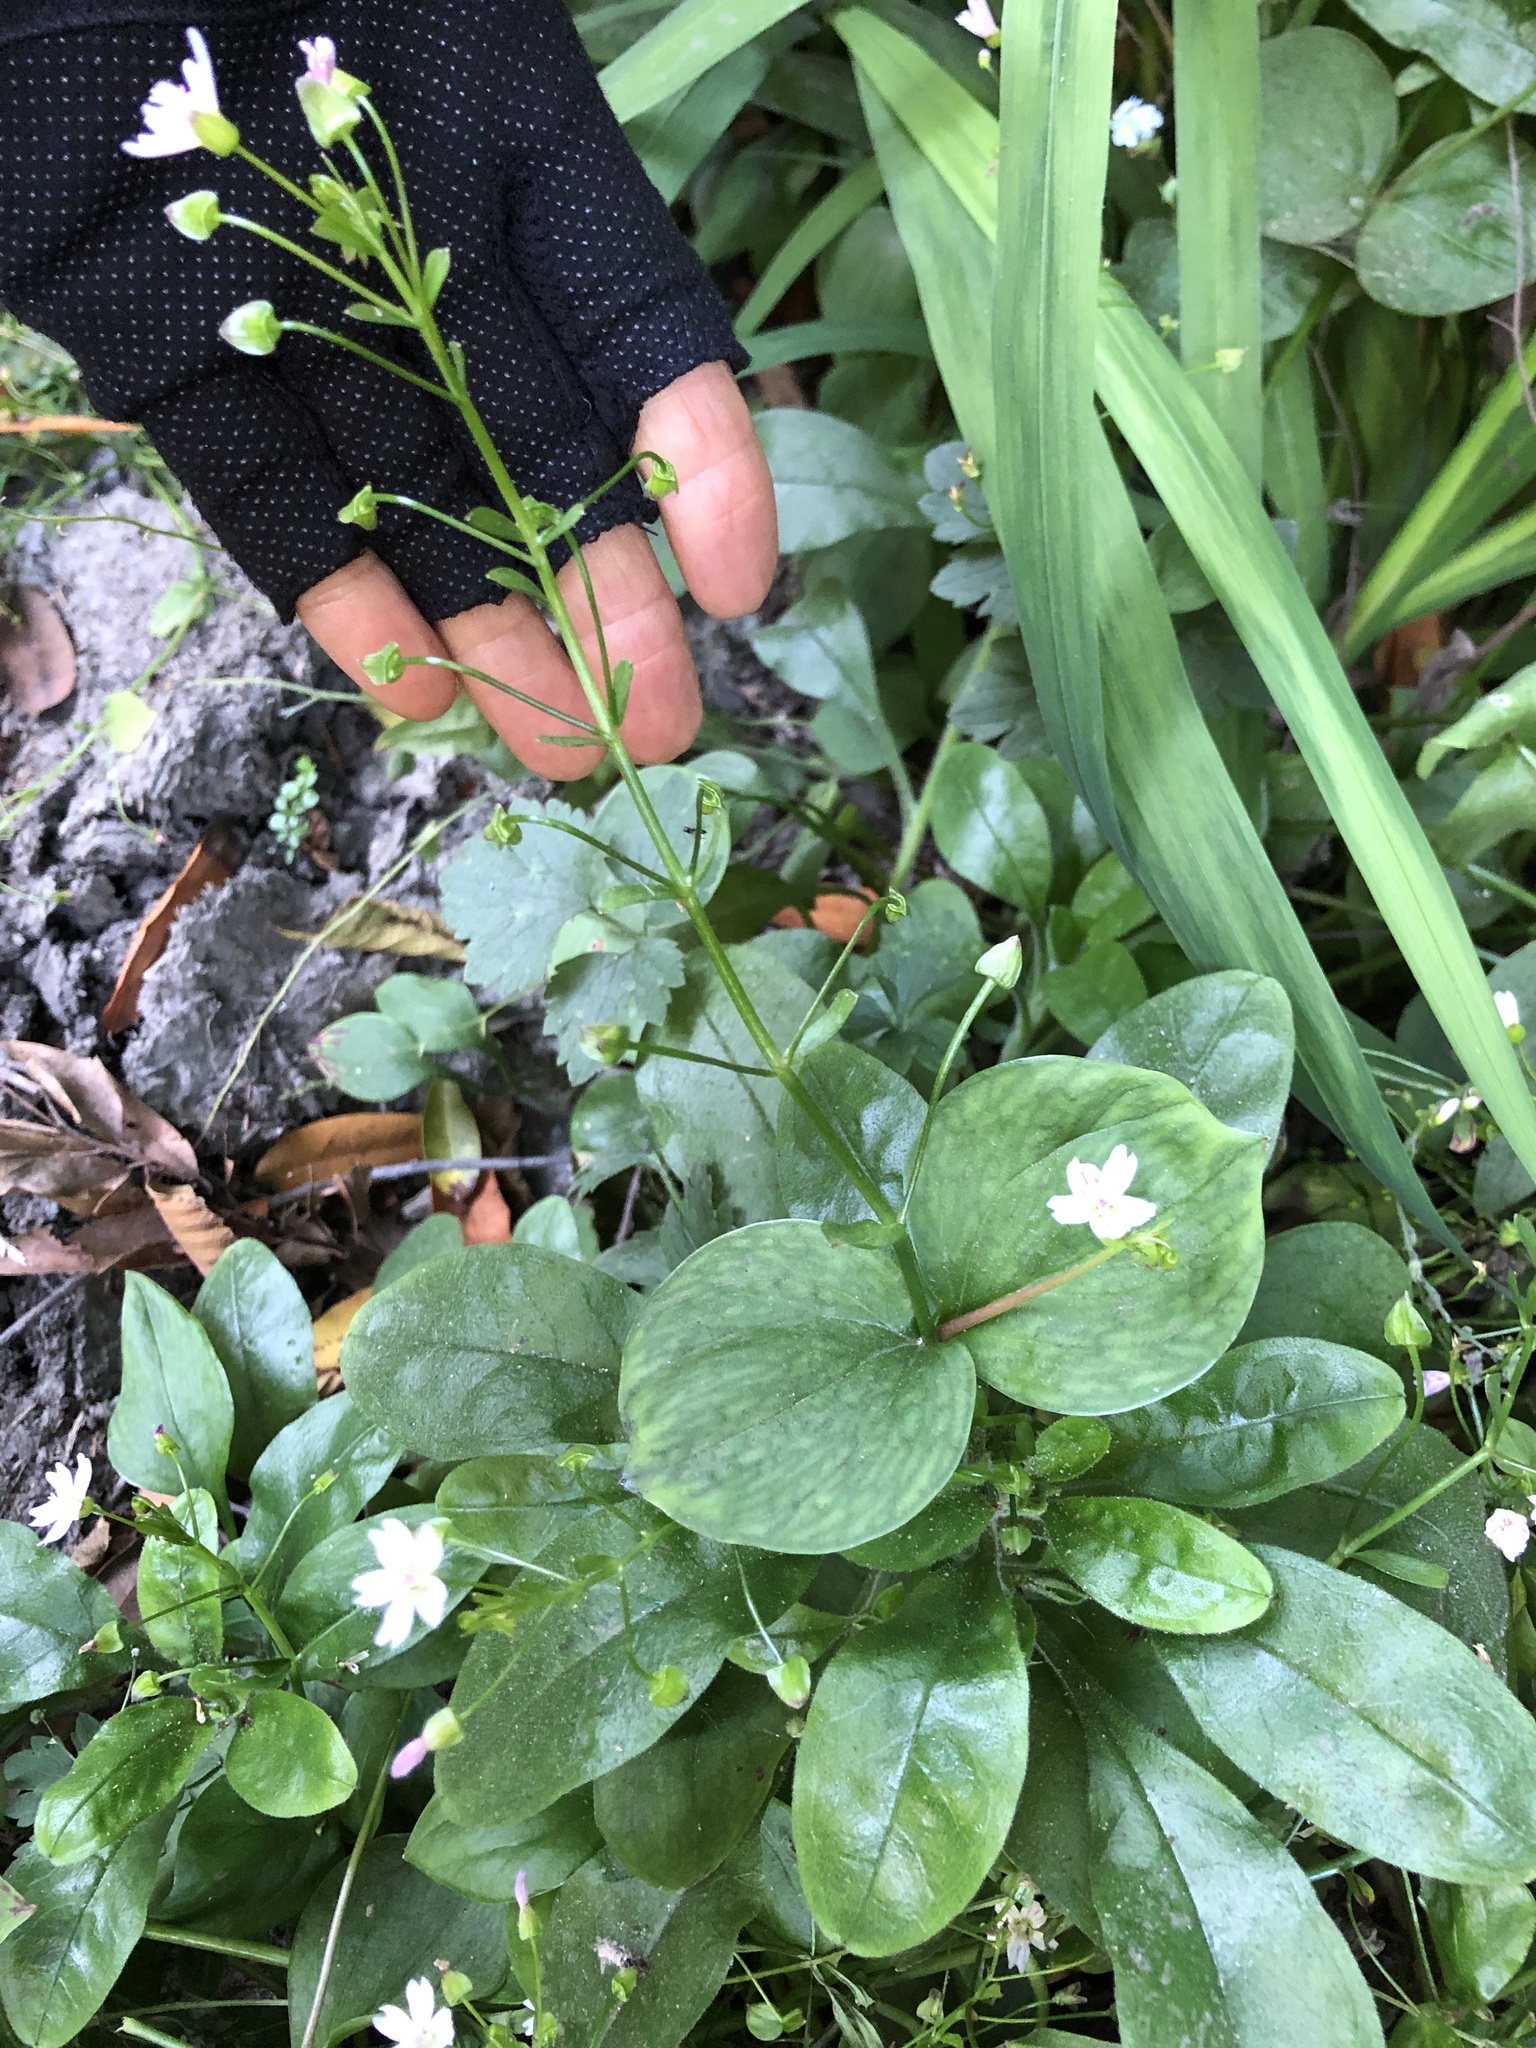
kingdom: Plantae
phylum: Tracheophyta
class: Magnoliopsida
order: Caryophyllales
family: Montiaceae
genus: Claytonia
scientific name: Claytonia sibirica
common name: Pink purslane
